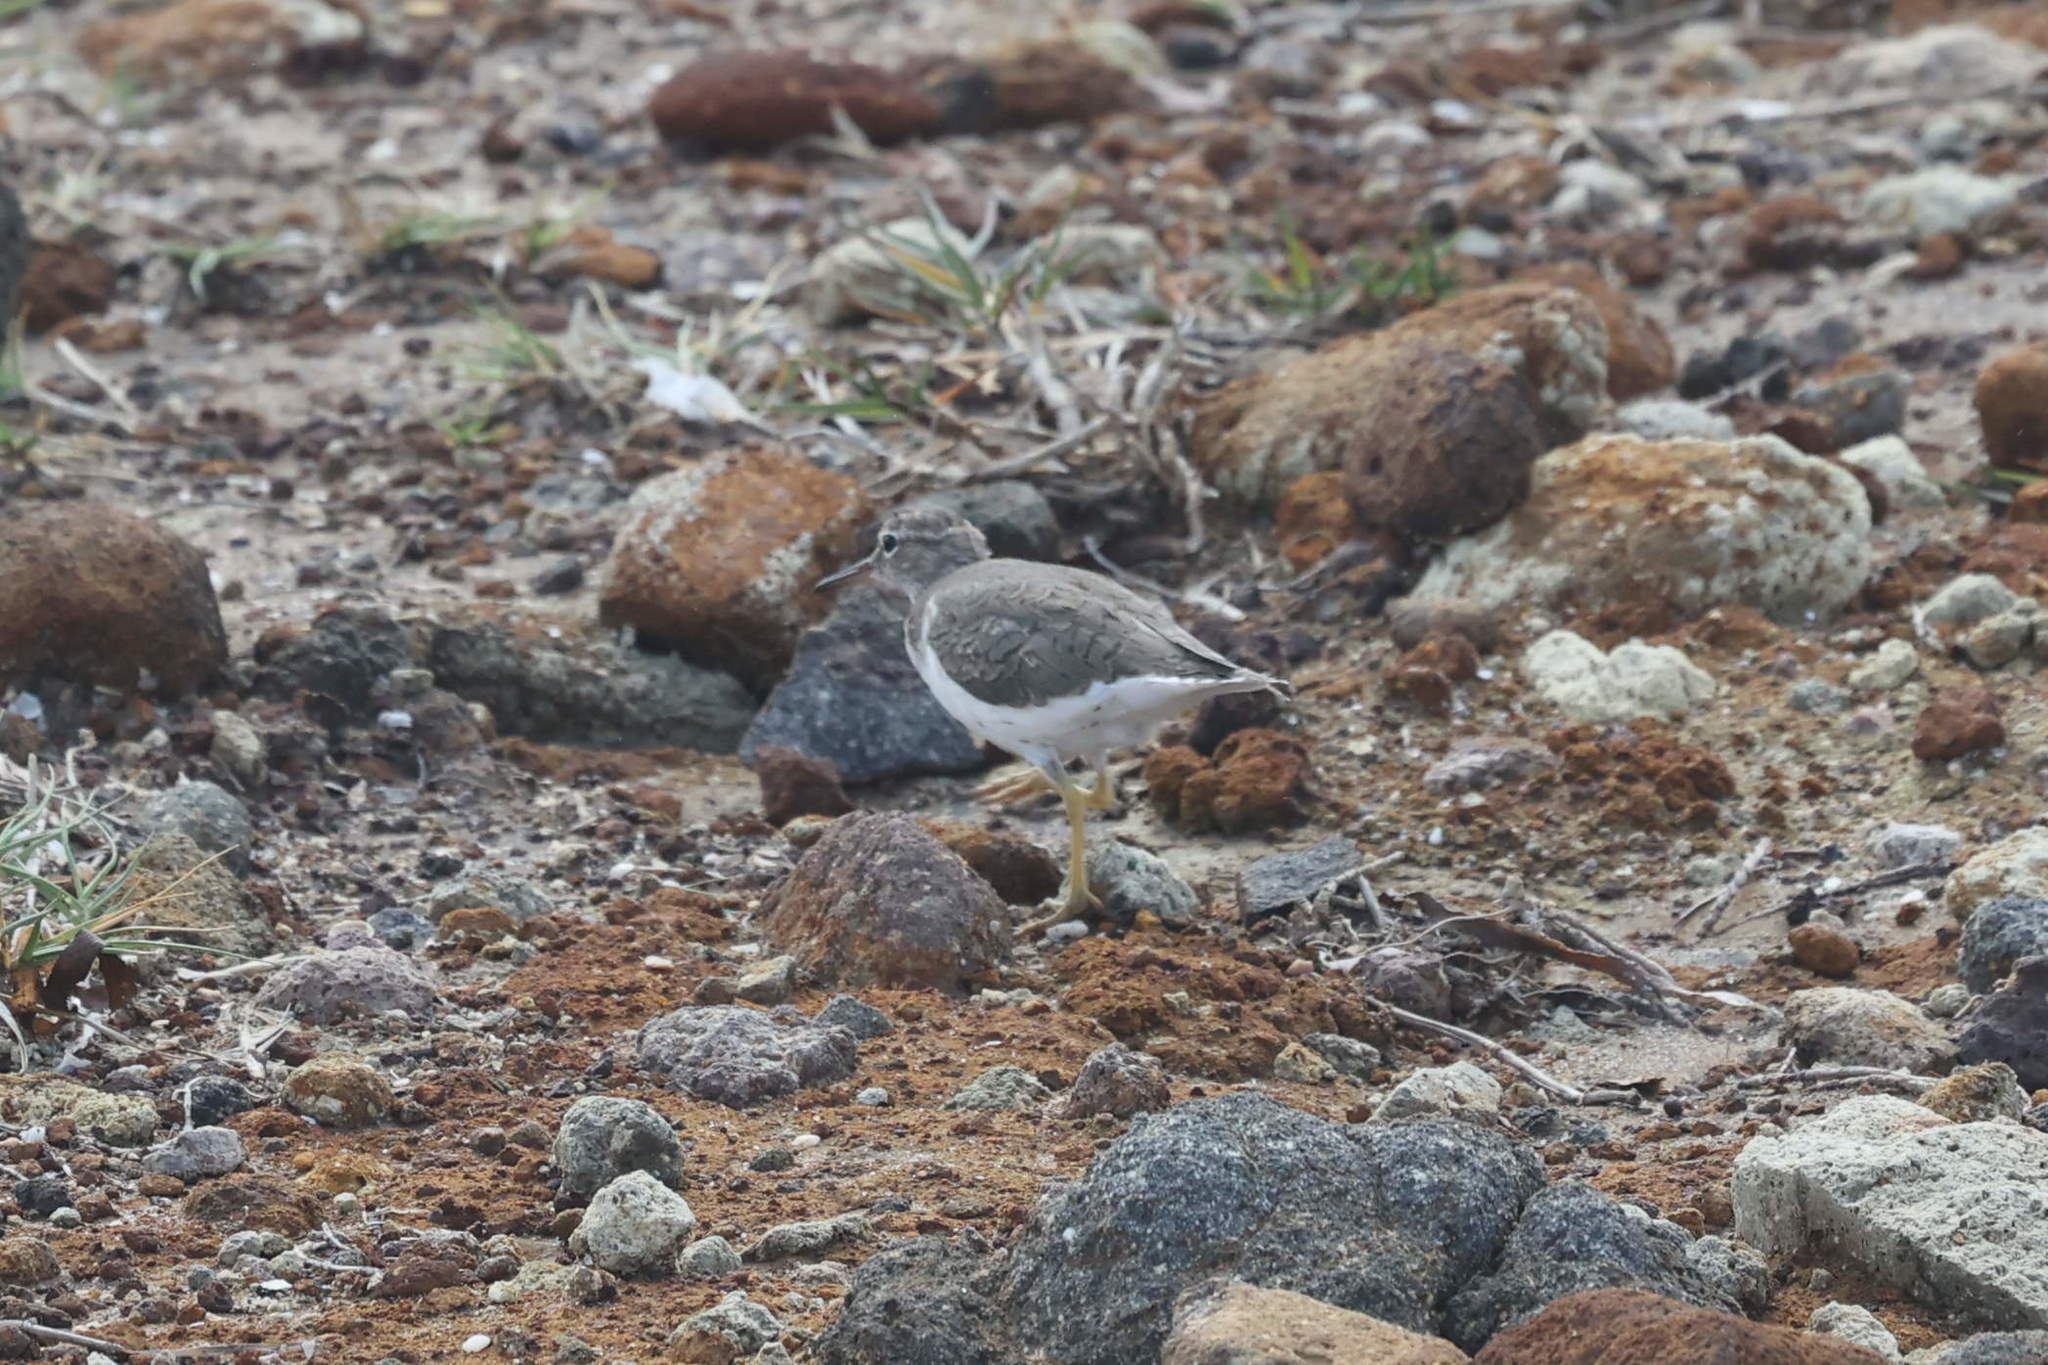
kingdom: Animalia
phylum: Chordata
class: Aves
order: Charadriiformes
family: Scolopacidae
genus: Actitis
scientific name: Actitis macularius
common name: Spotted sandpiper
